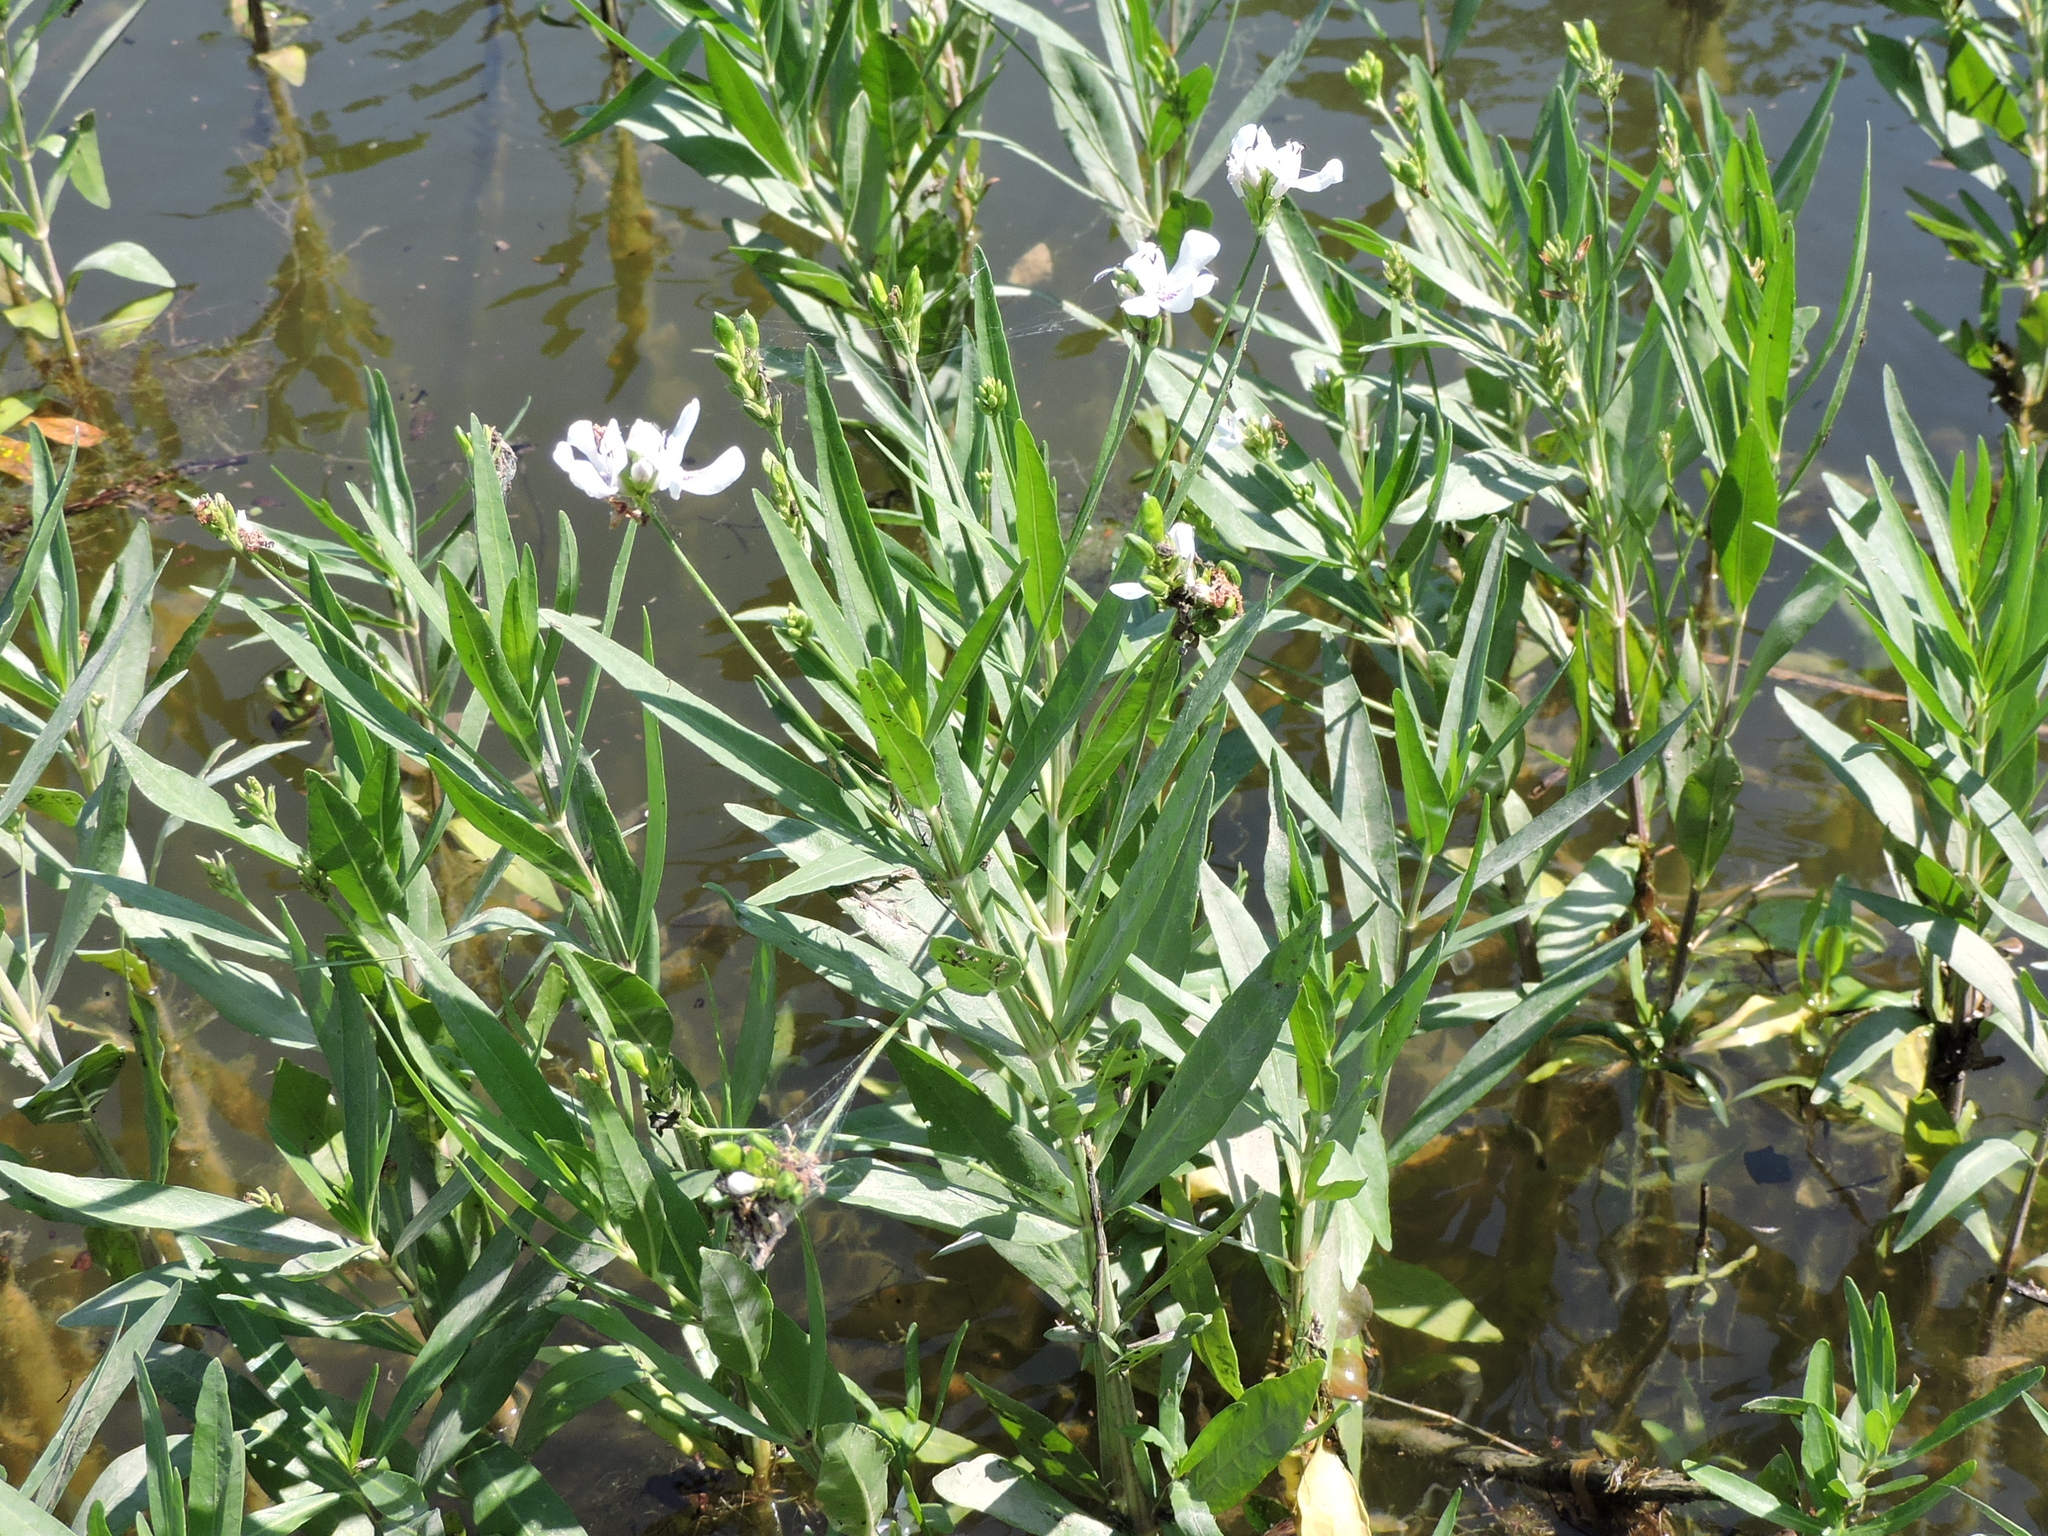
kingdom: Plantae
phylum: Tracheophyta
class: Magnoliopsida
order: Lamiales
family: Acanthaceae
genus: Dianthera
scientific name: Dianthera americana
